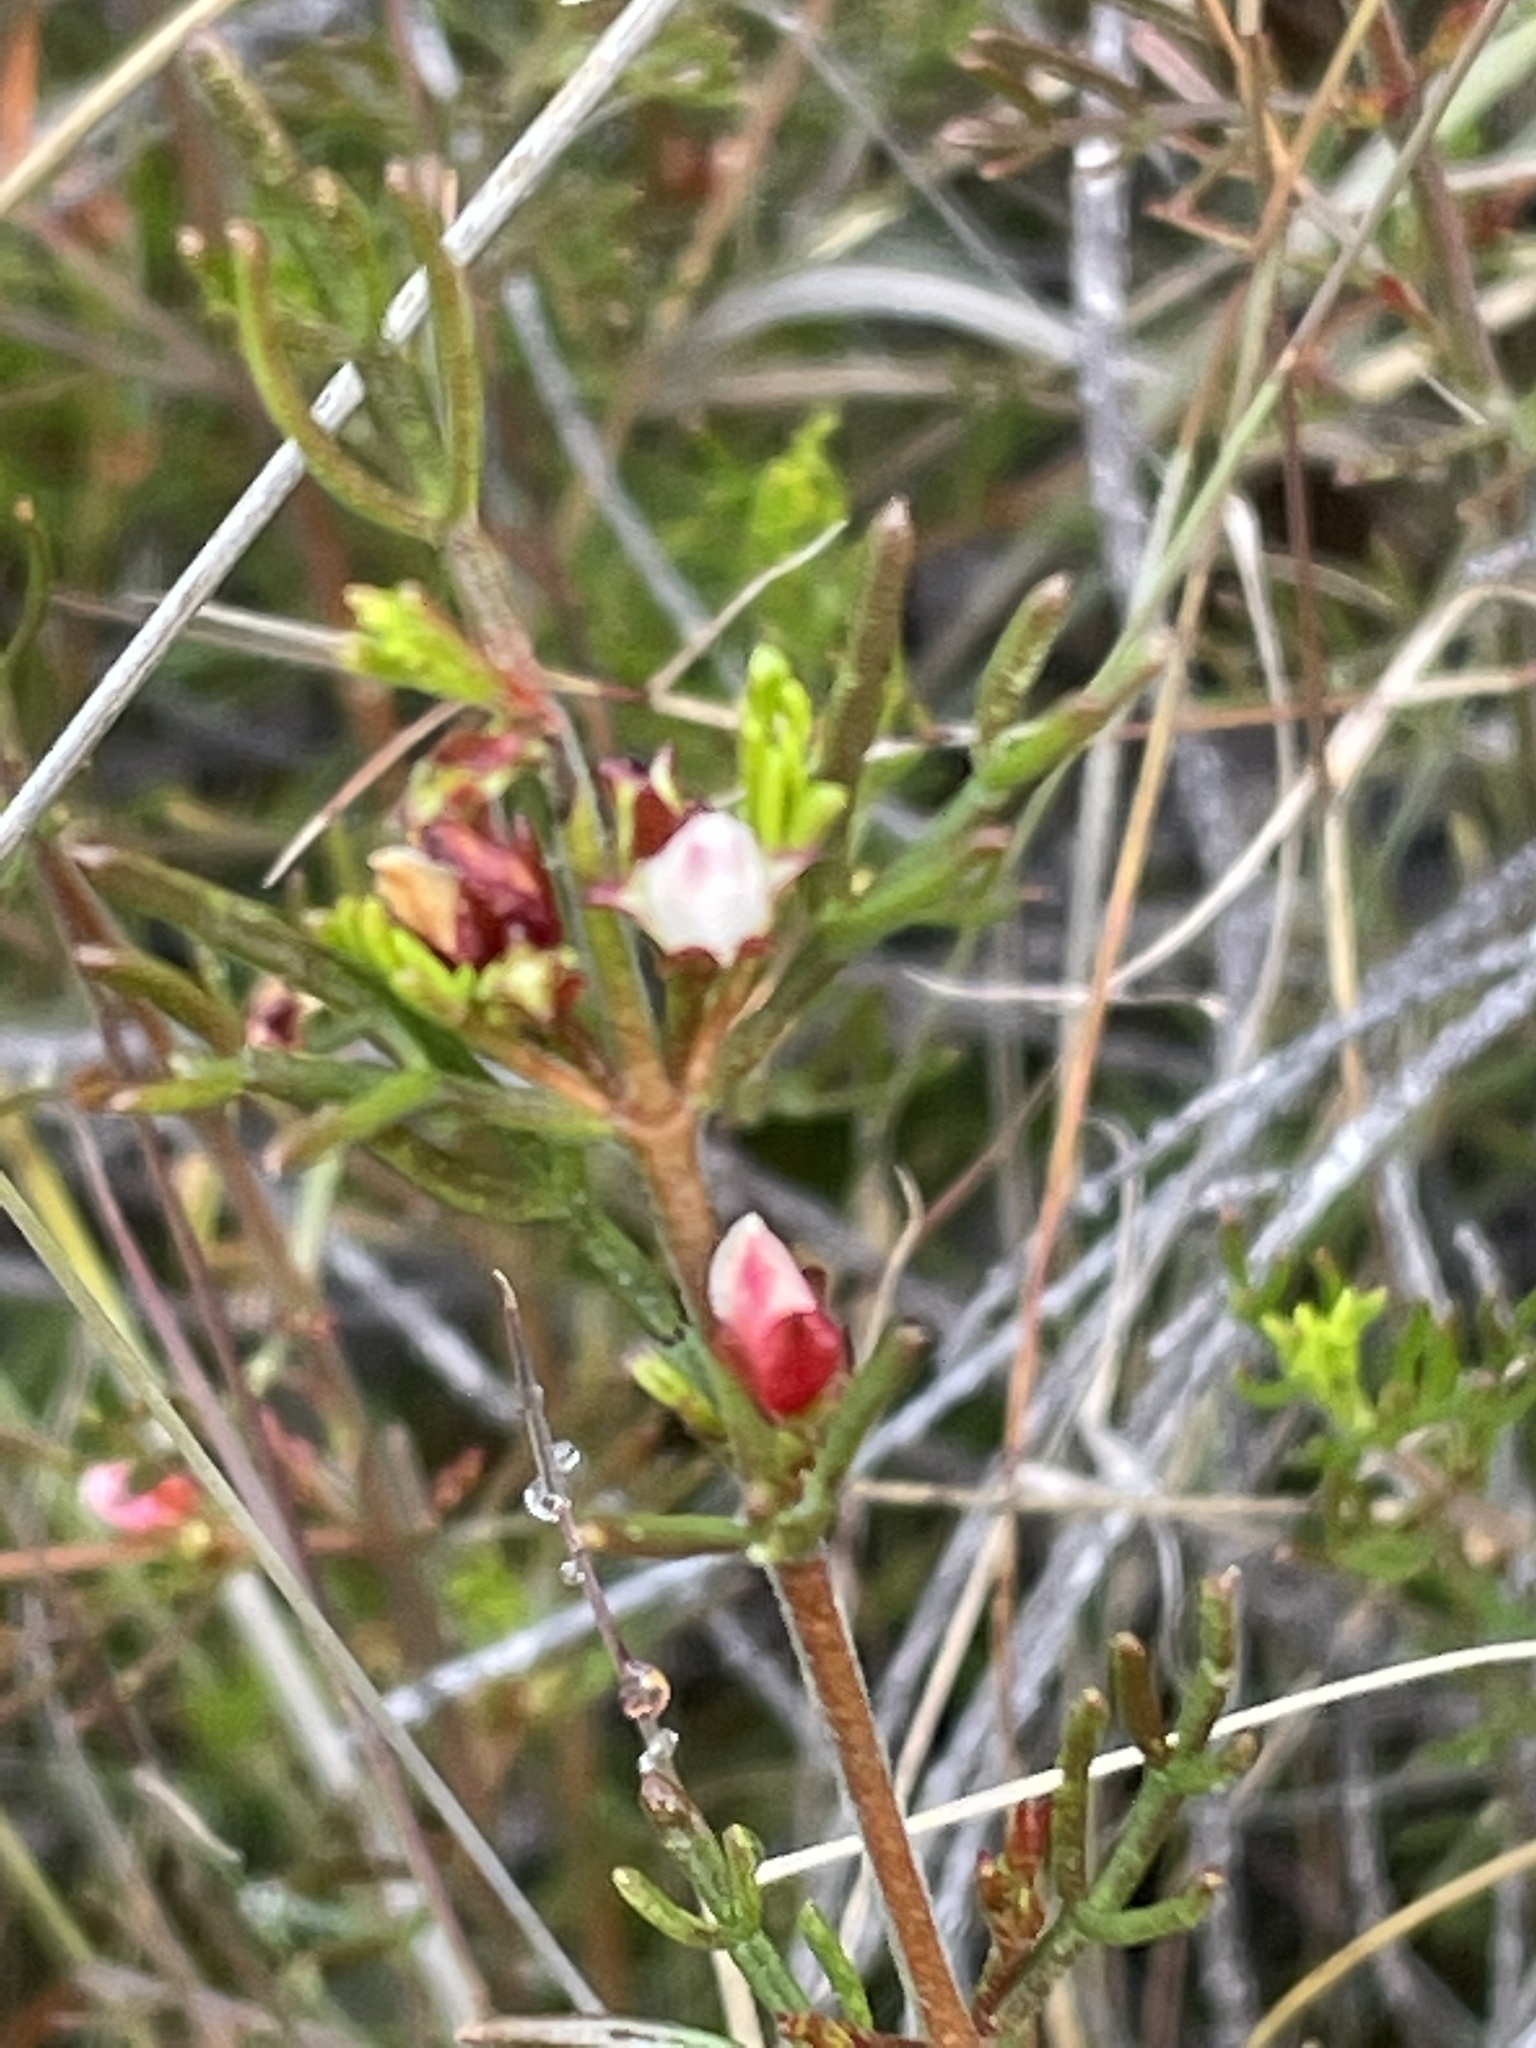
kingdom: Plantae
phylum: Tracheophyta
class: Magnoliopsida
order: Sapindales
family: Rutaceae
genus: Cyanothamnus
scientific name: Cyanothamnus occidentalis
